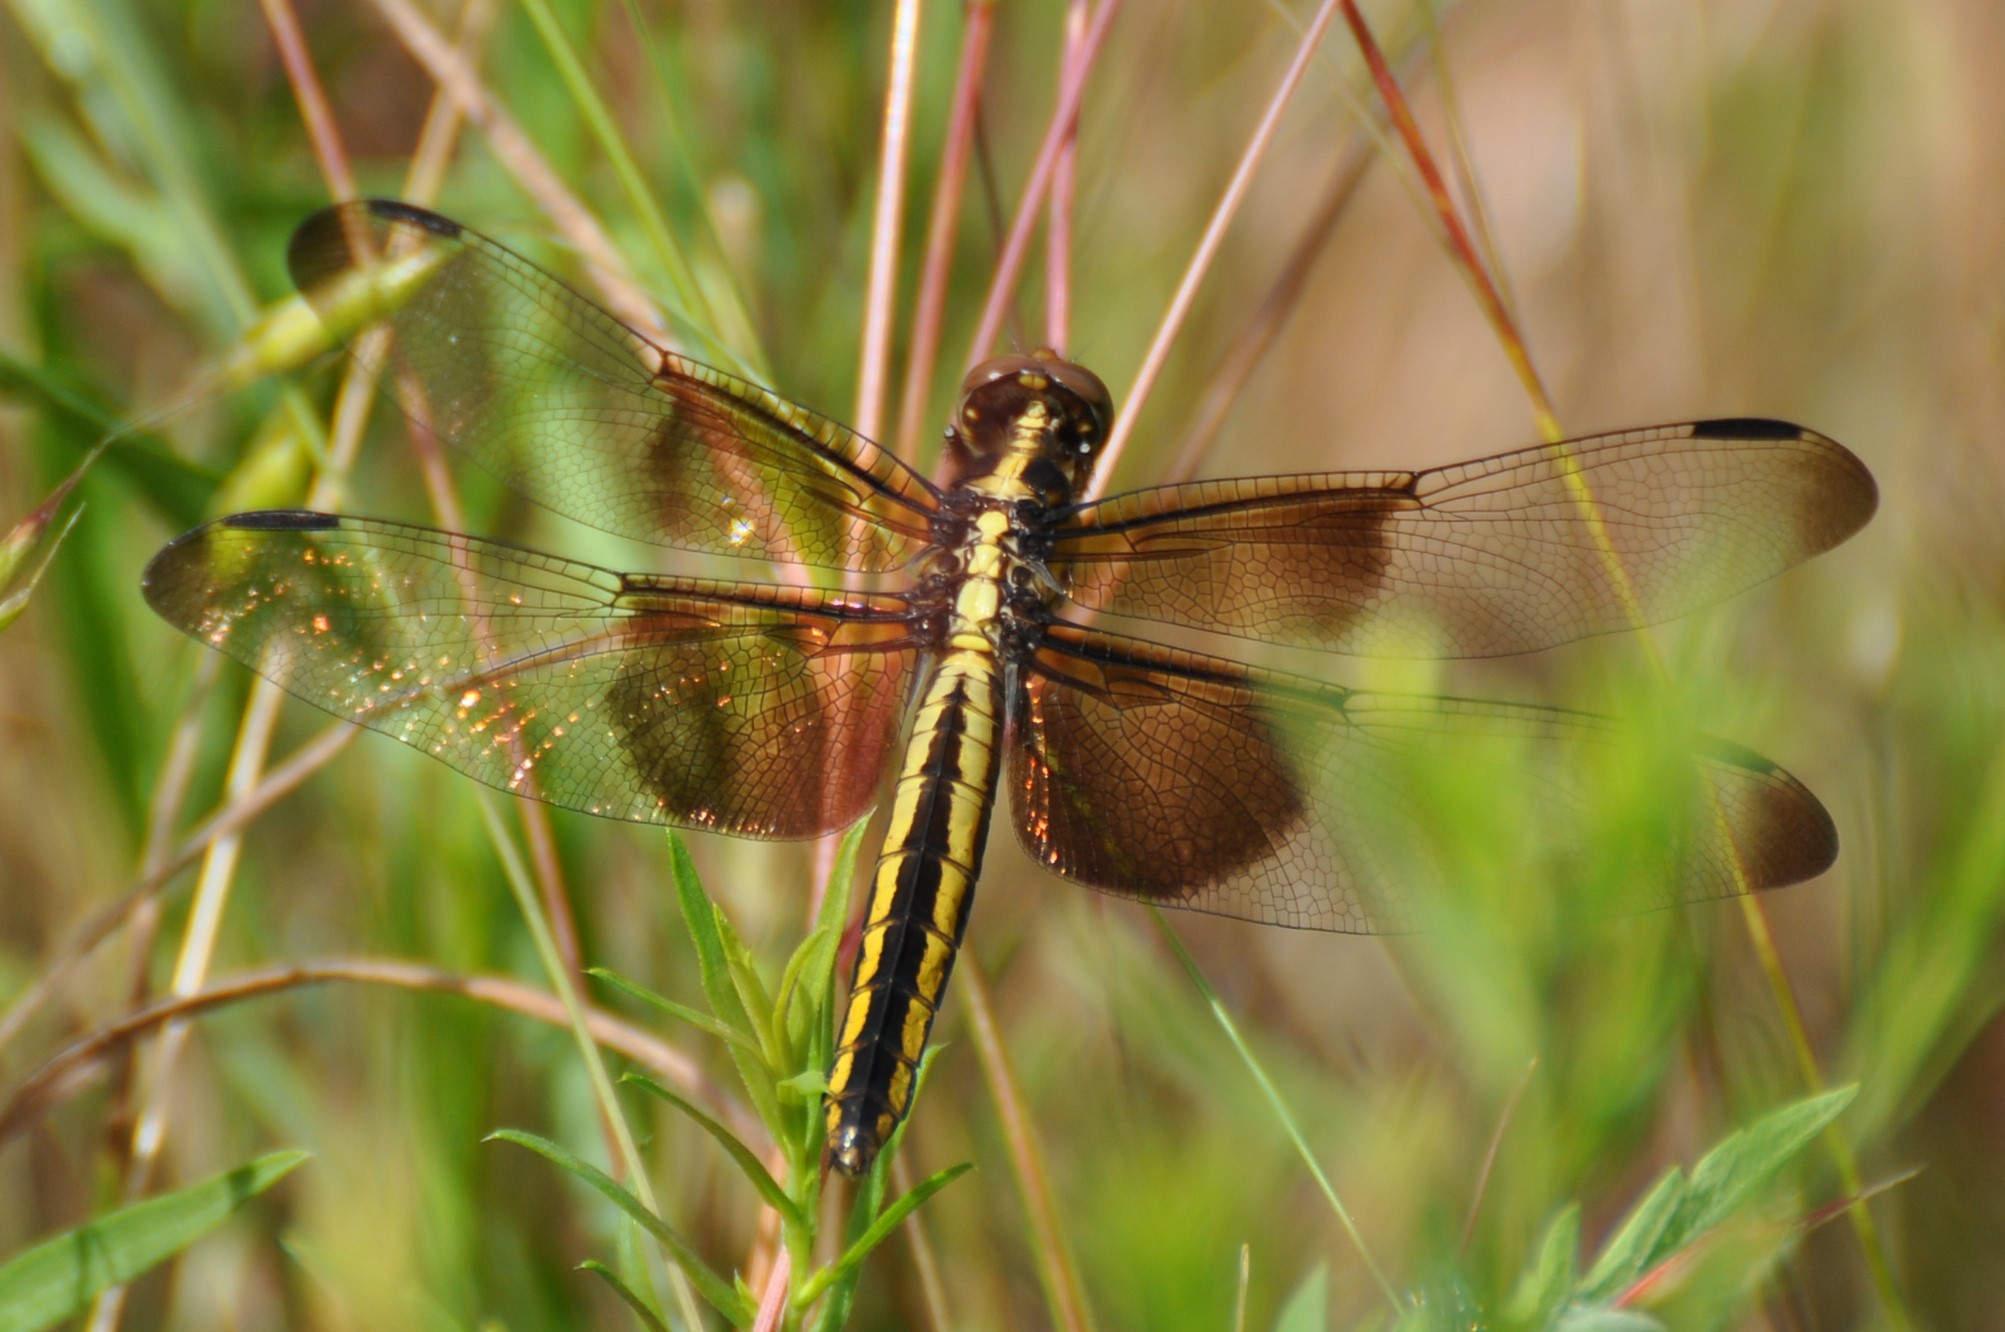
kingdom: Animalia
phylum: Arthropoda
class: Insecta
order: Odonata
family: Libellulidae
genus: Libellula
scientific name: Libellula luctuosa
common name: Widow skimmer
